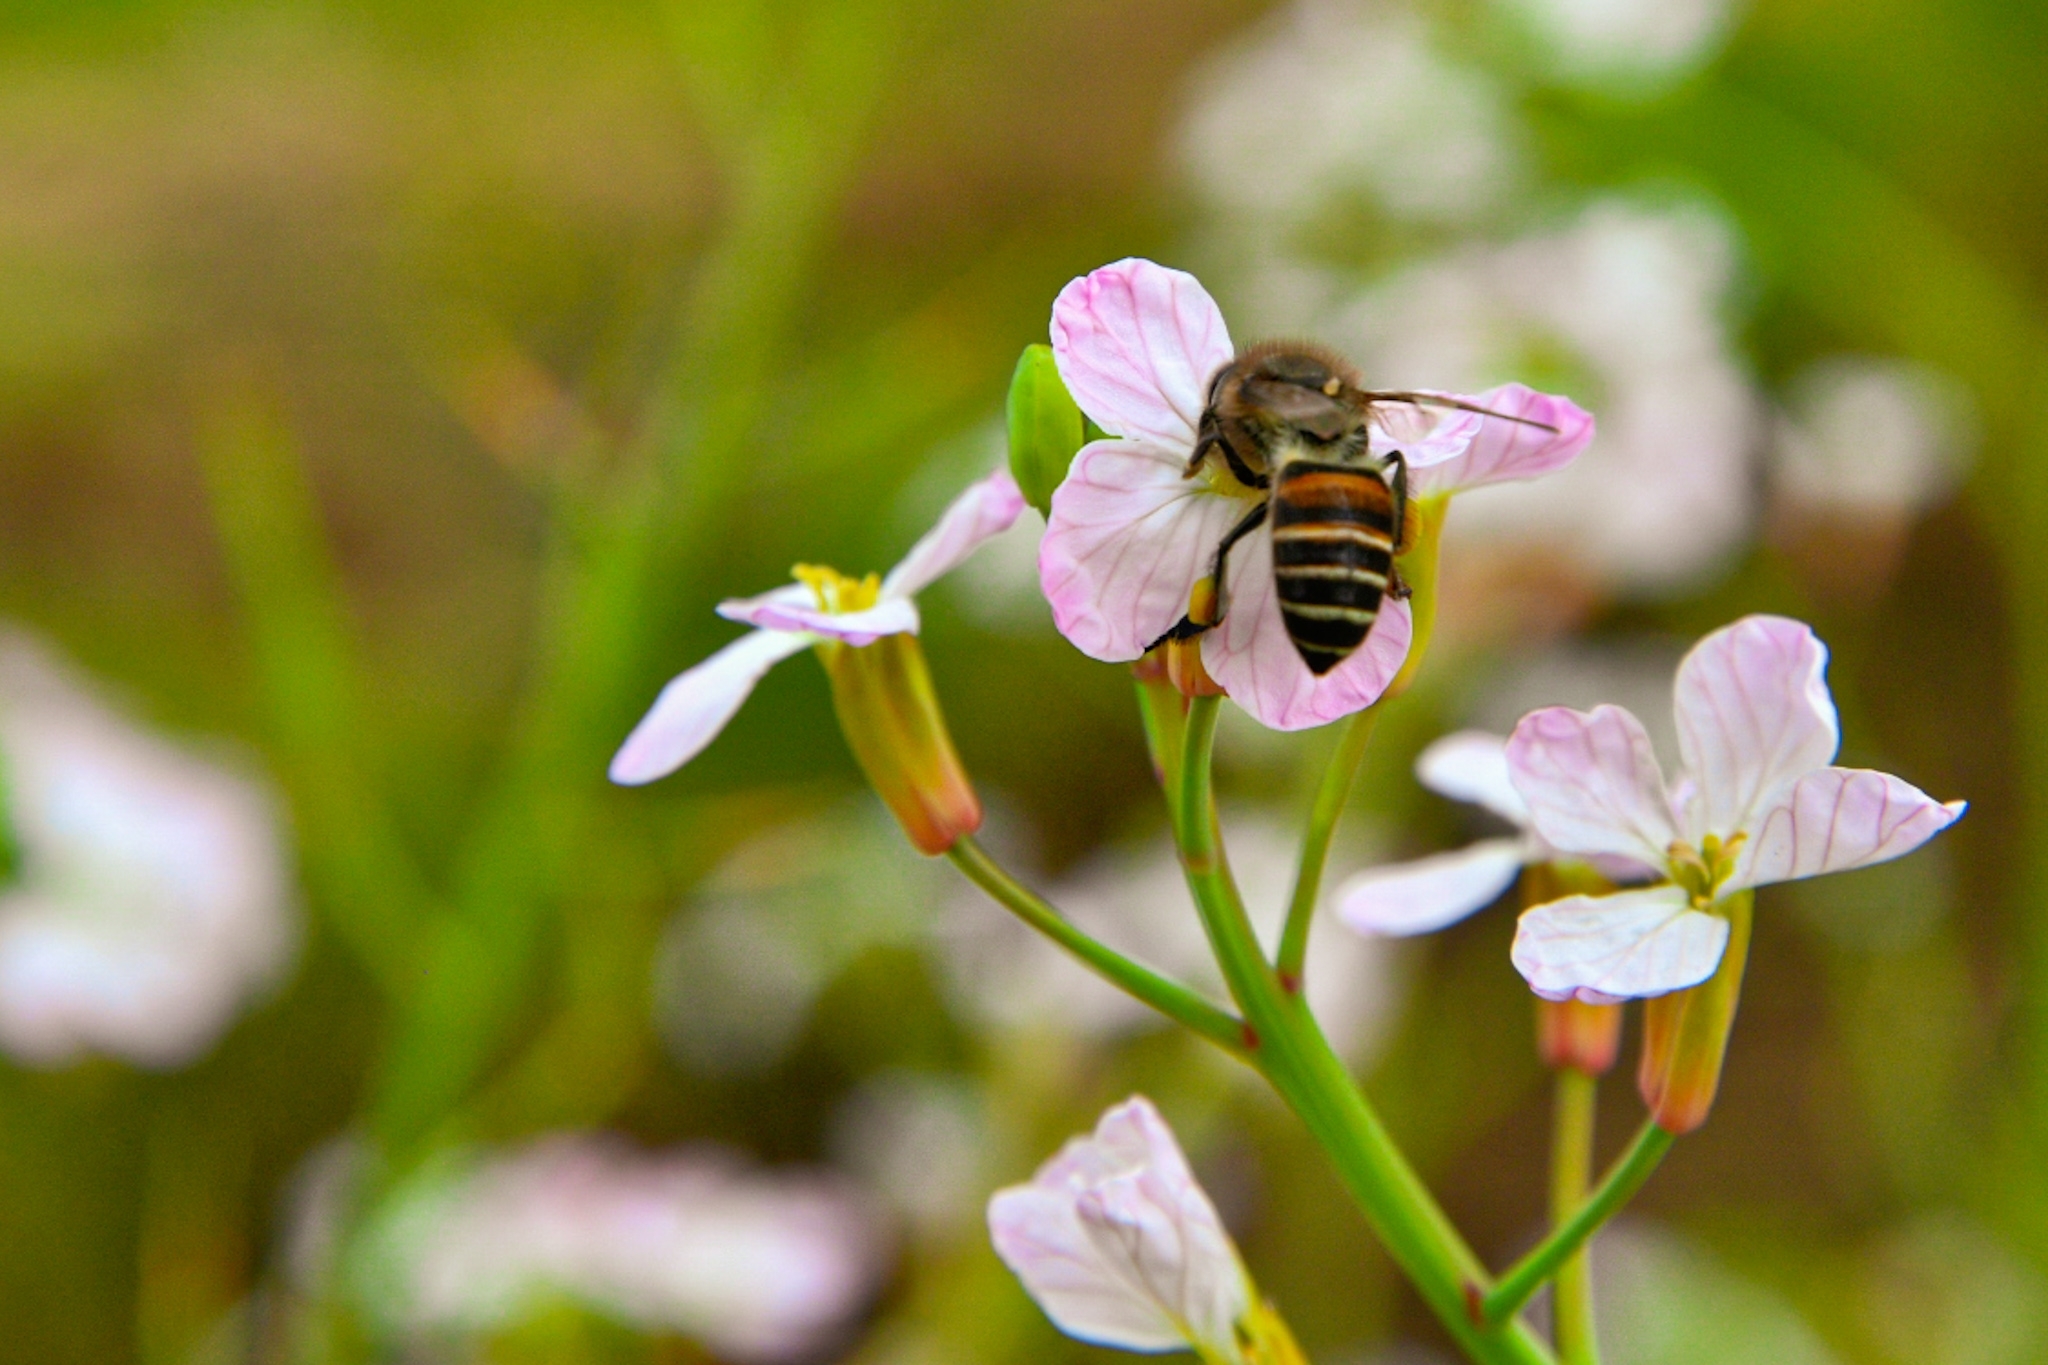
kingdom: Animalia
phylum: Arthropoda
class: Insecta
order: Hymenoptera
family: Apidae
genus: Apis
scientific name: Apis cerana
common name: Honey bee
